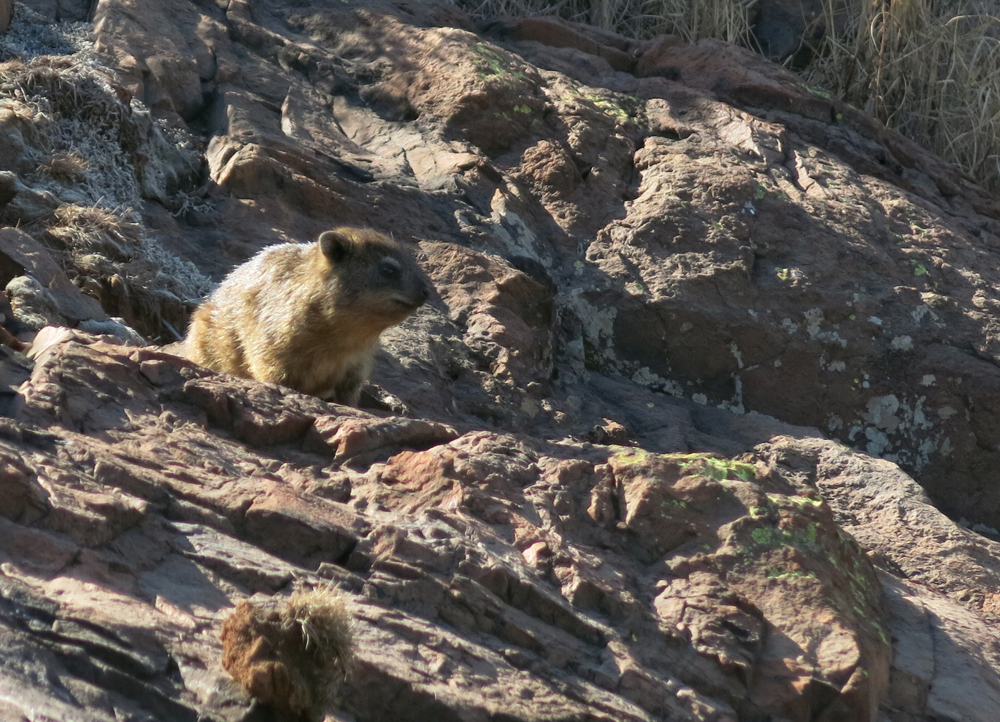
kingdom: Animalia
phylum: Chordata
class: Mammalia
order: Hyracoidea
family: Procaviidae
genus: Procavia
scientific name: Procavia capensis
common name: Rock hyrax
